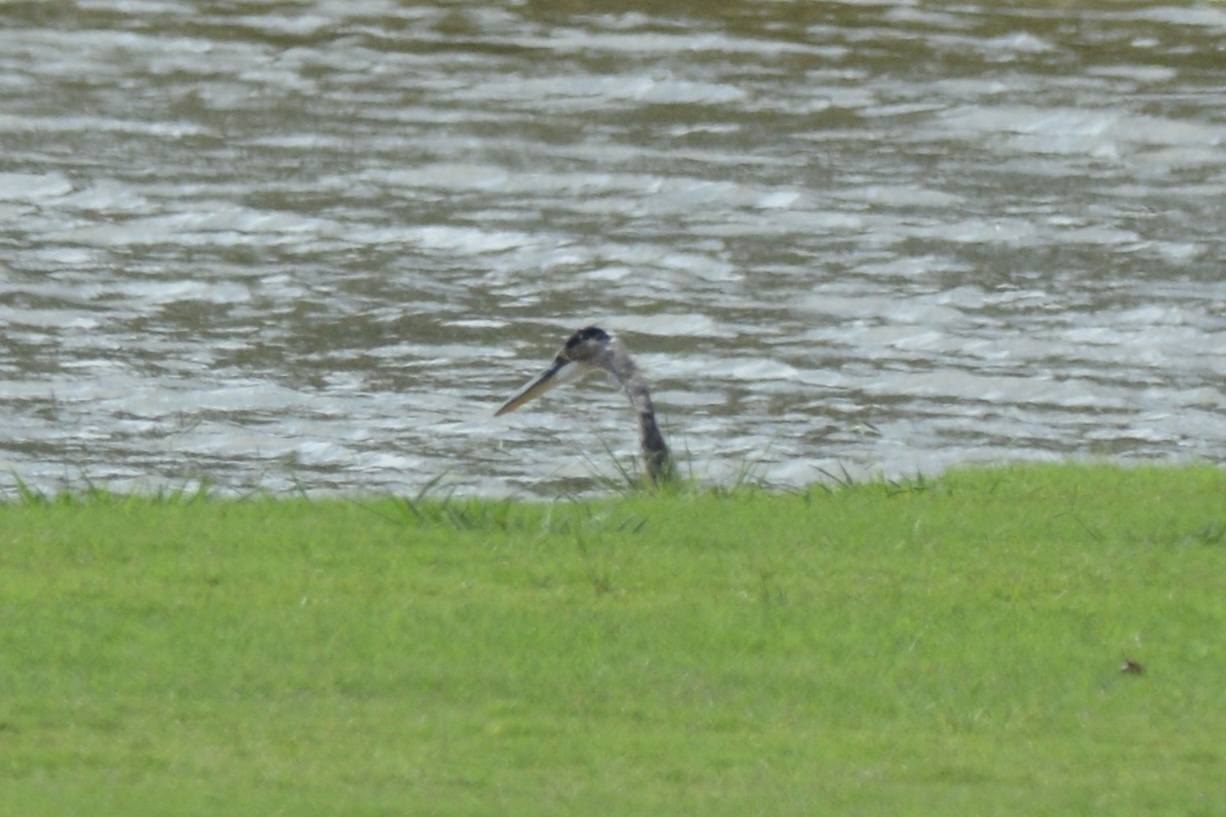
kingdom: Animalia
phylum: Chordata
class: Aves
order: Pelecaniformes
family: Ardeidae
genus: Ardea
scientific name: Ardea herodias
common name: Great blue heron
